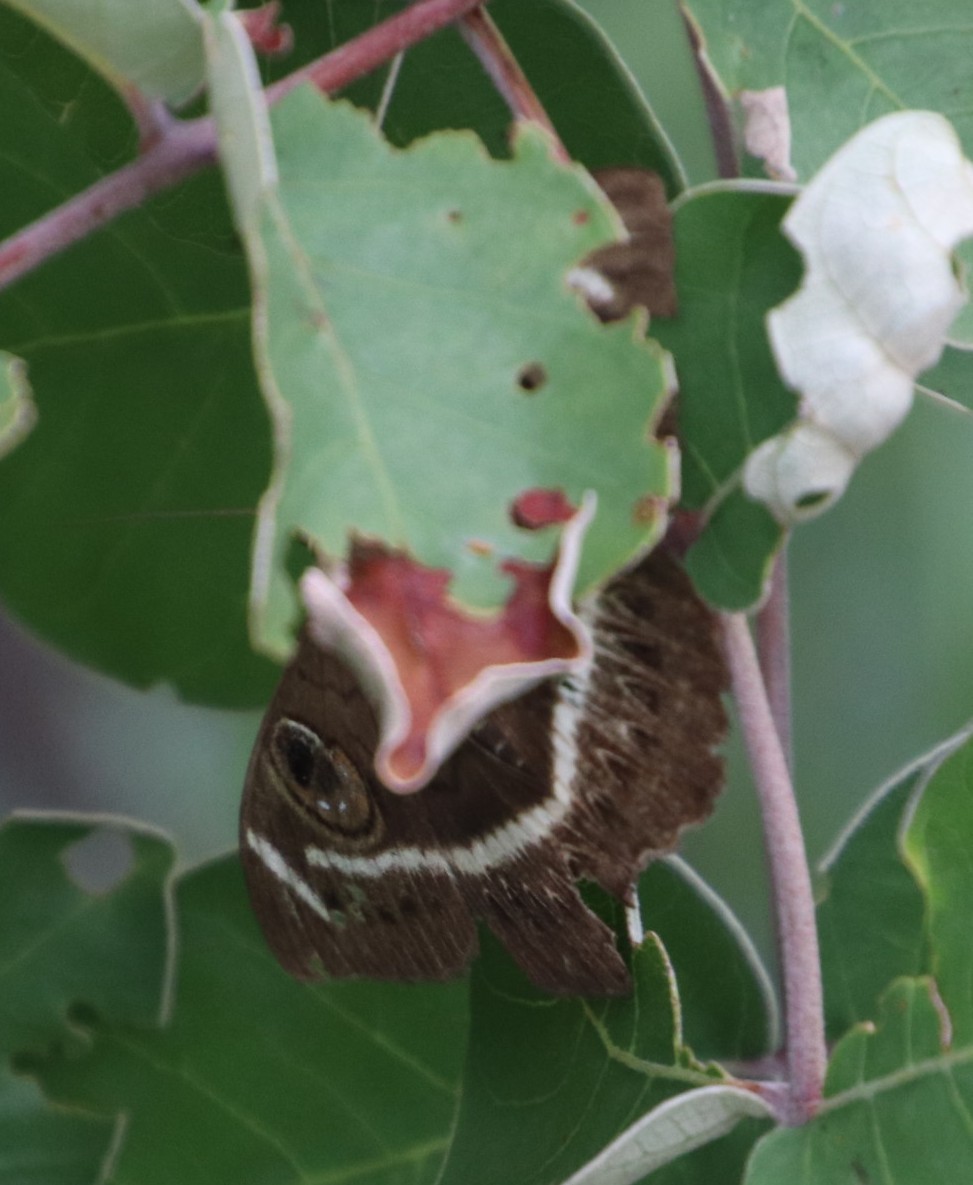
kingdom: Animalia
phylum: Arthropoda
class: Insecta
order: Lepidoptera
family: Erebidae
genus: Cyligramma
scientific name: Cyligramma latona
